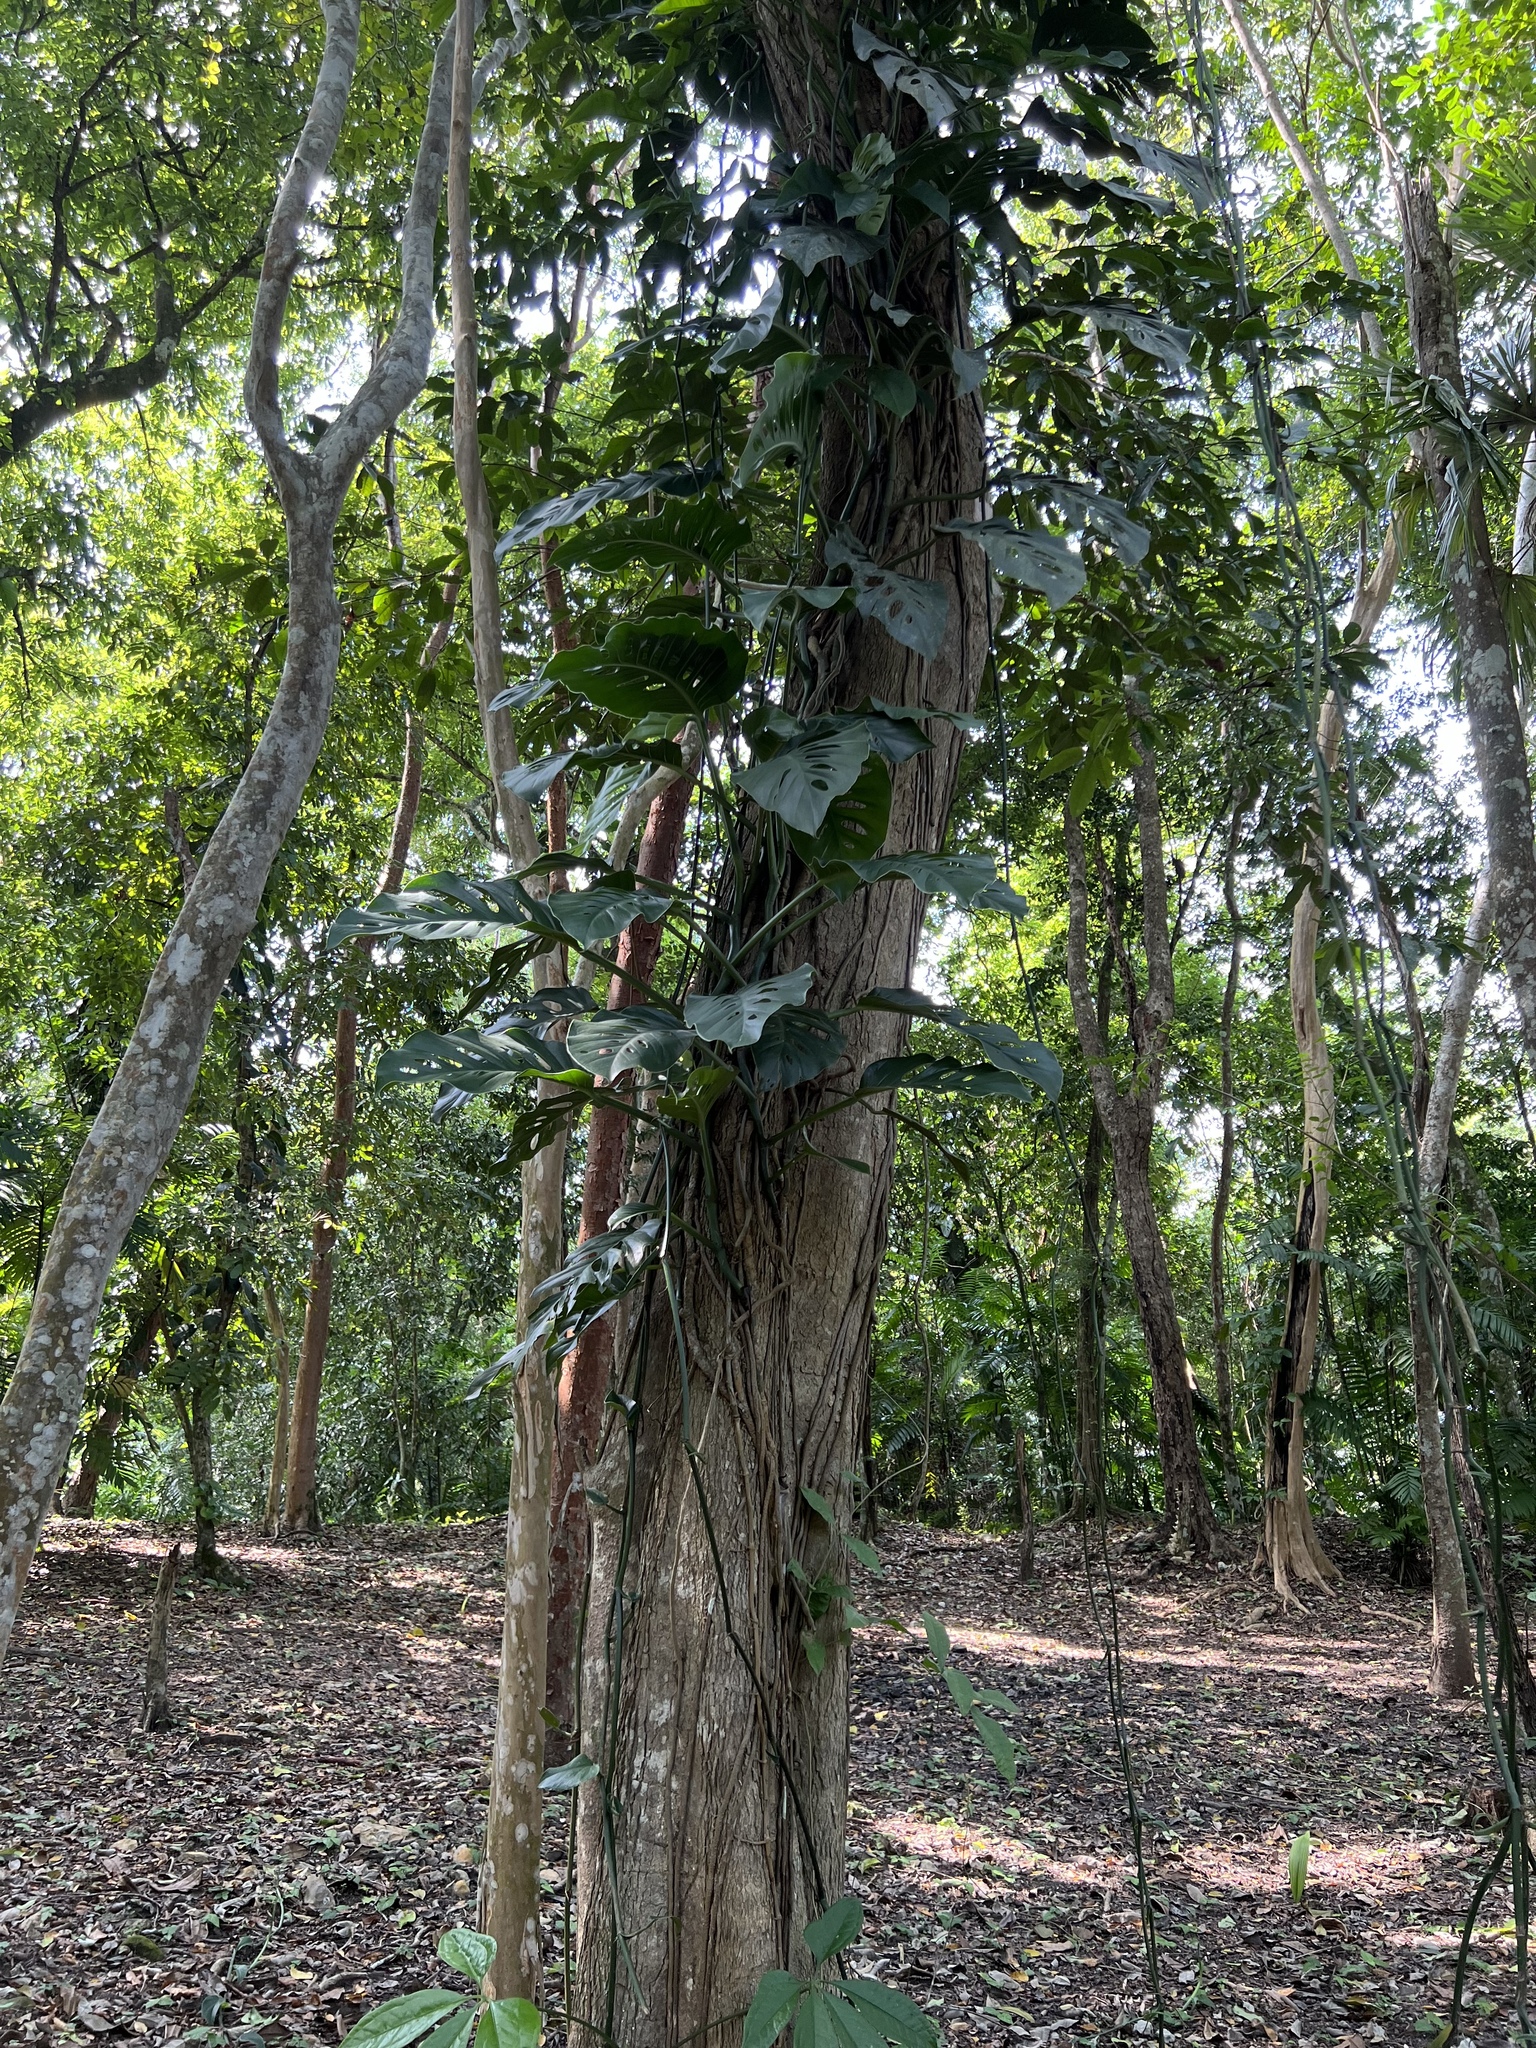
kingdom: Plantae
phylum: Tracheophyta
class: Liliopsida
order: Alismatales
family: Araceae
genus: Monstera
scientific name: Monstera acuminata
